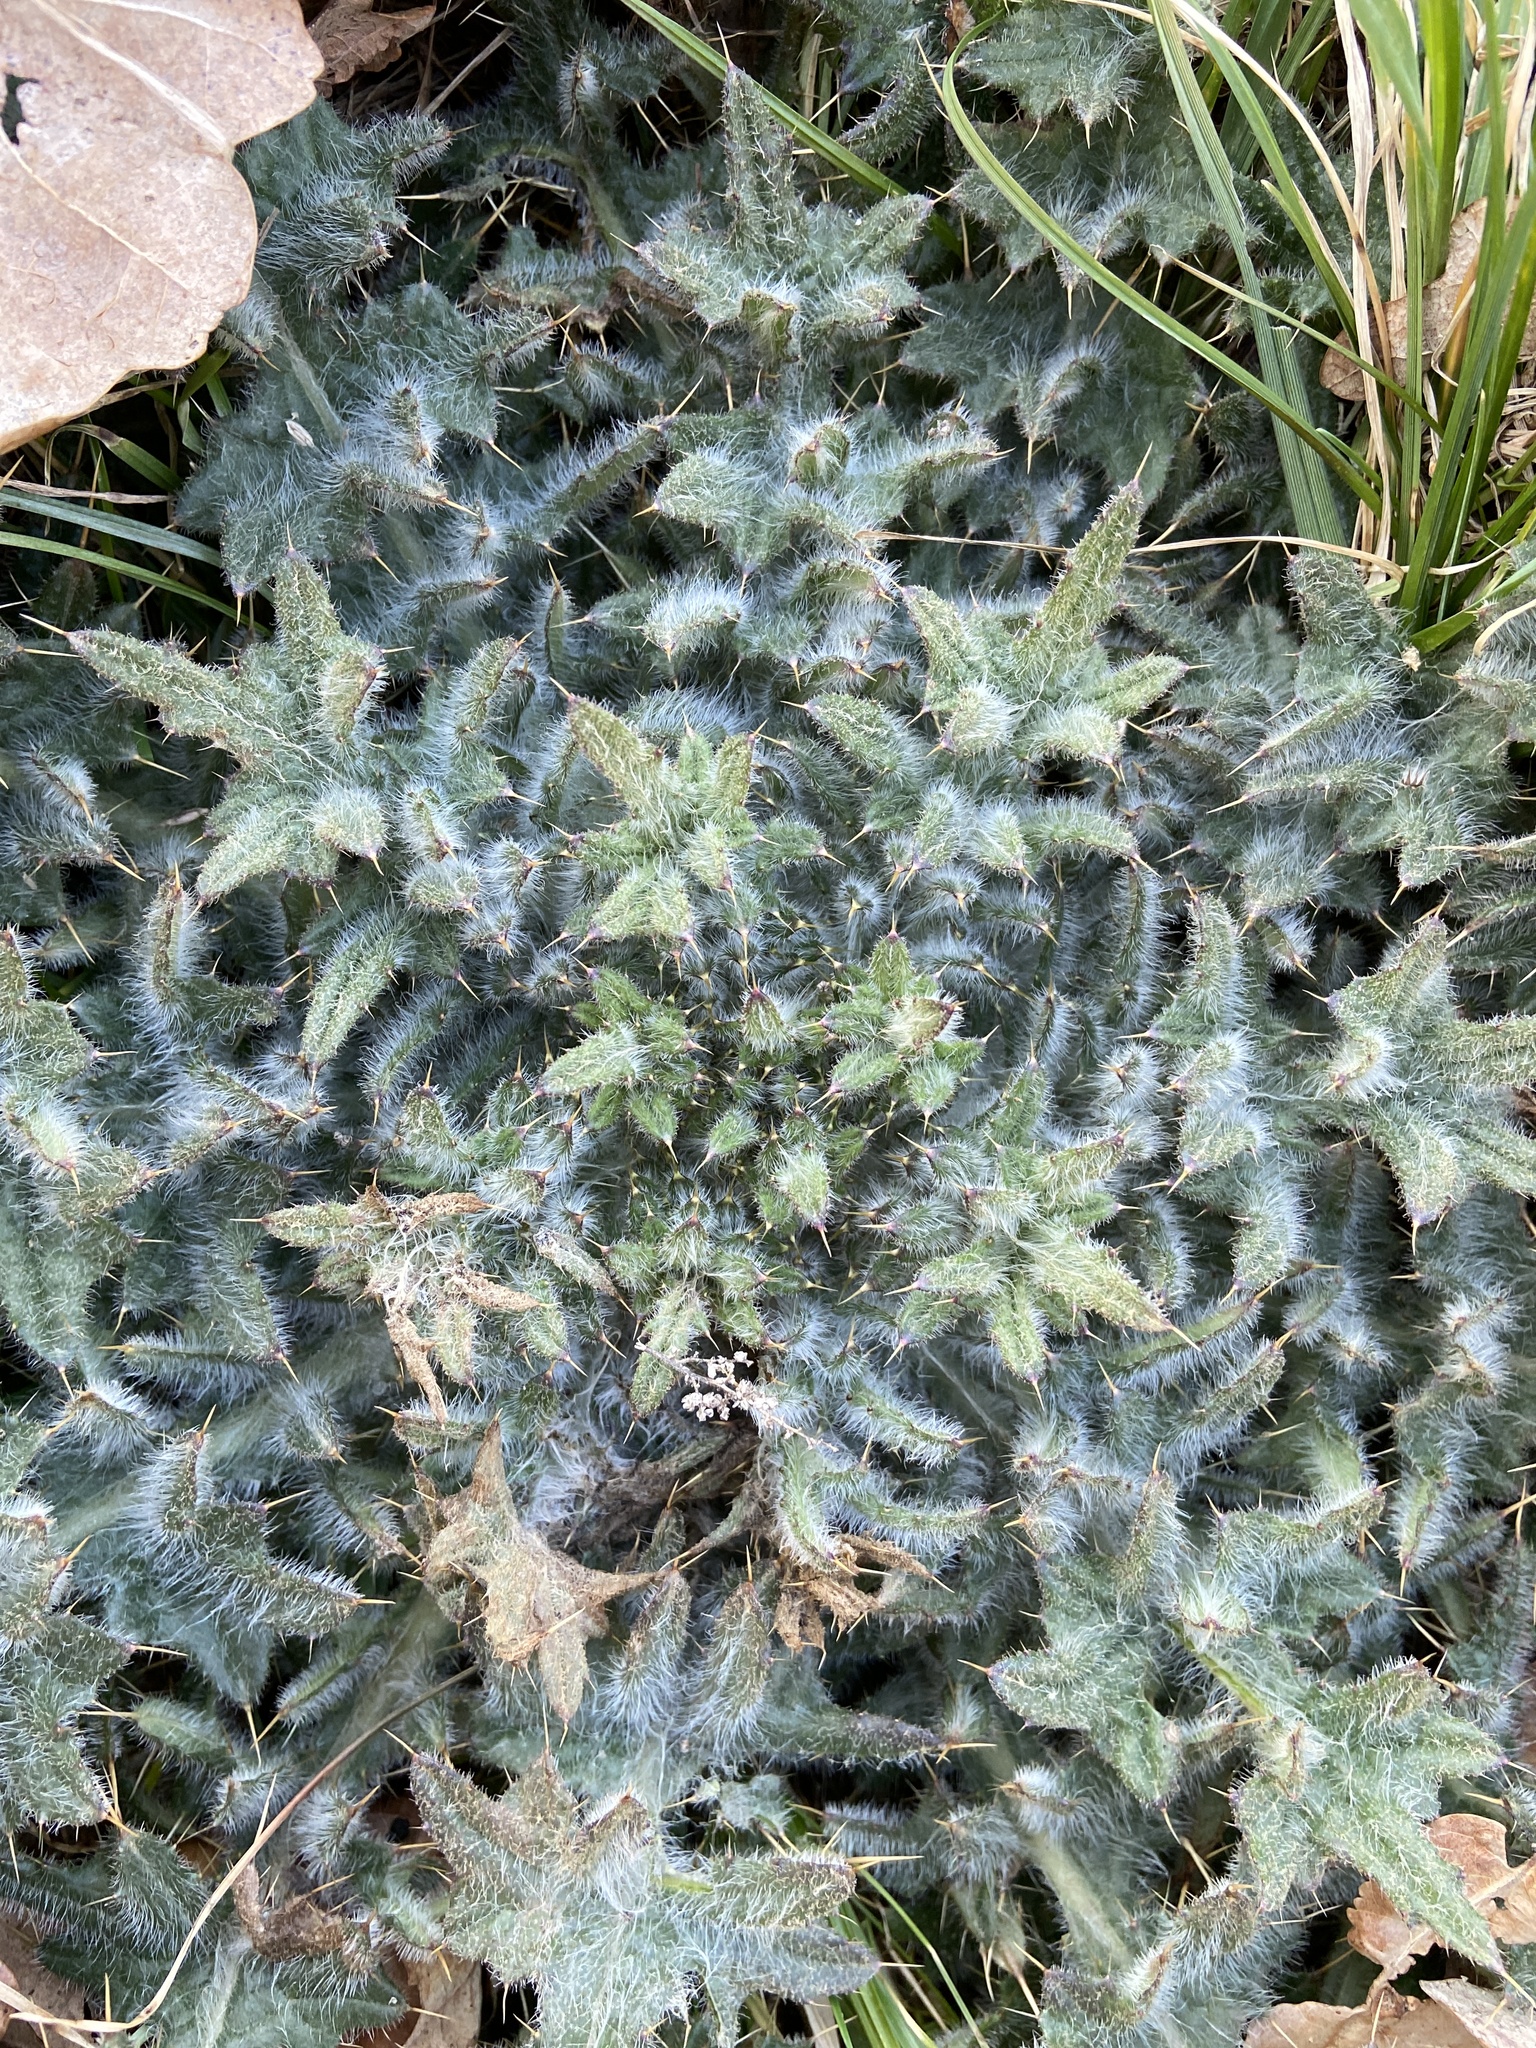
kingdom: Plantae
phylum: Tracheophyta
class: Magnoliopsida
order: Asterales
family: Asteraceae
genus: Cirsium
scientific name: Cirsium vulgare
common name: Bull thistle
